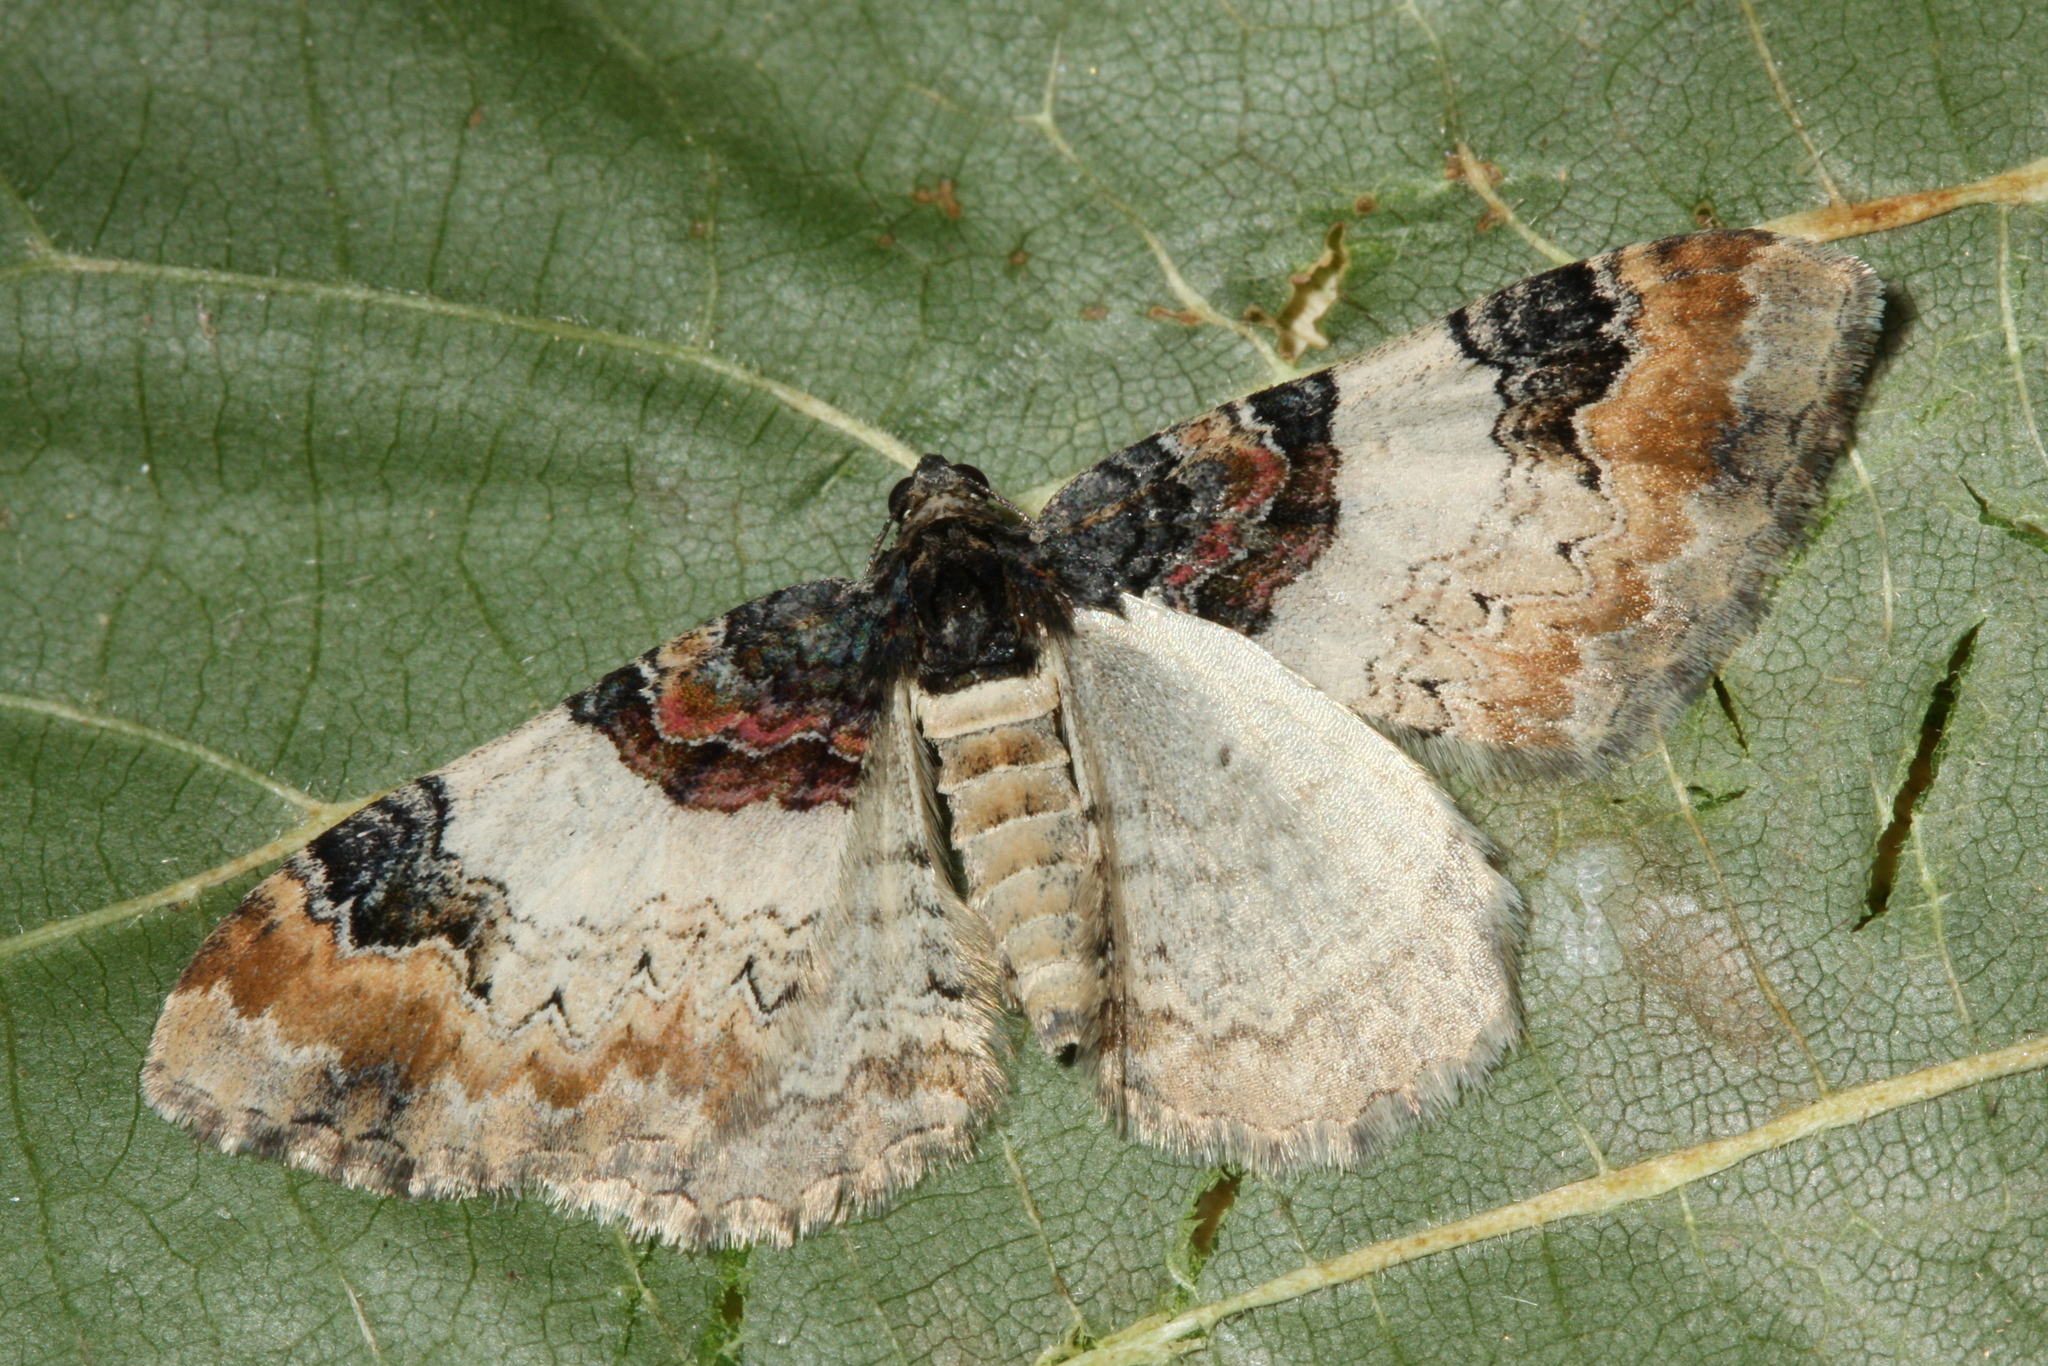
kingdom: Animalia
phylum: Arthropoda
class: Insecta
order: Lepidoptera
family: Geometridae
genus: Catarhoe
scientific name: Catarhoe cuculata
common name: Royal mantle
